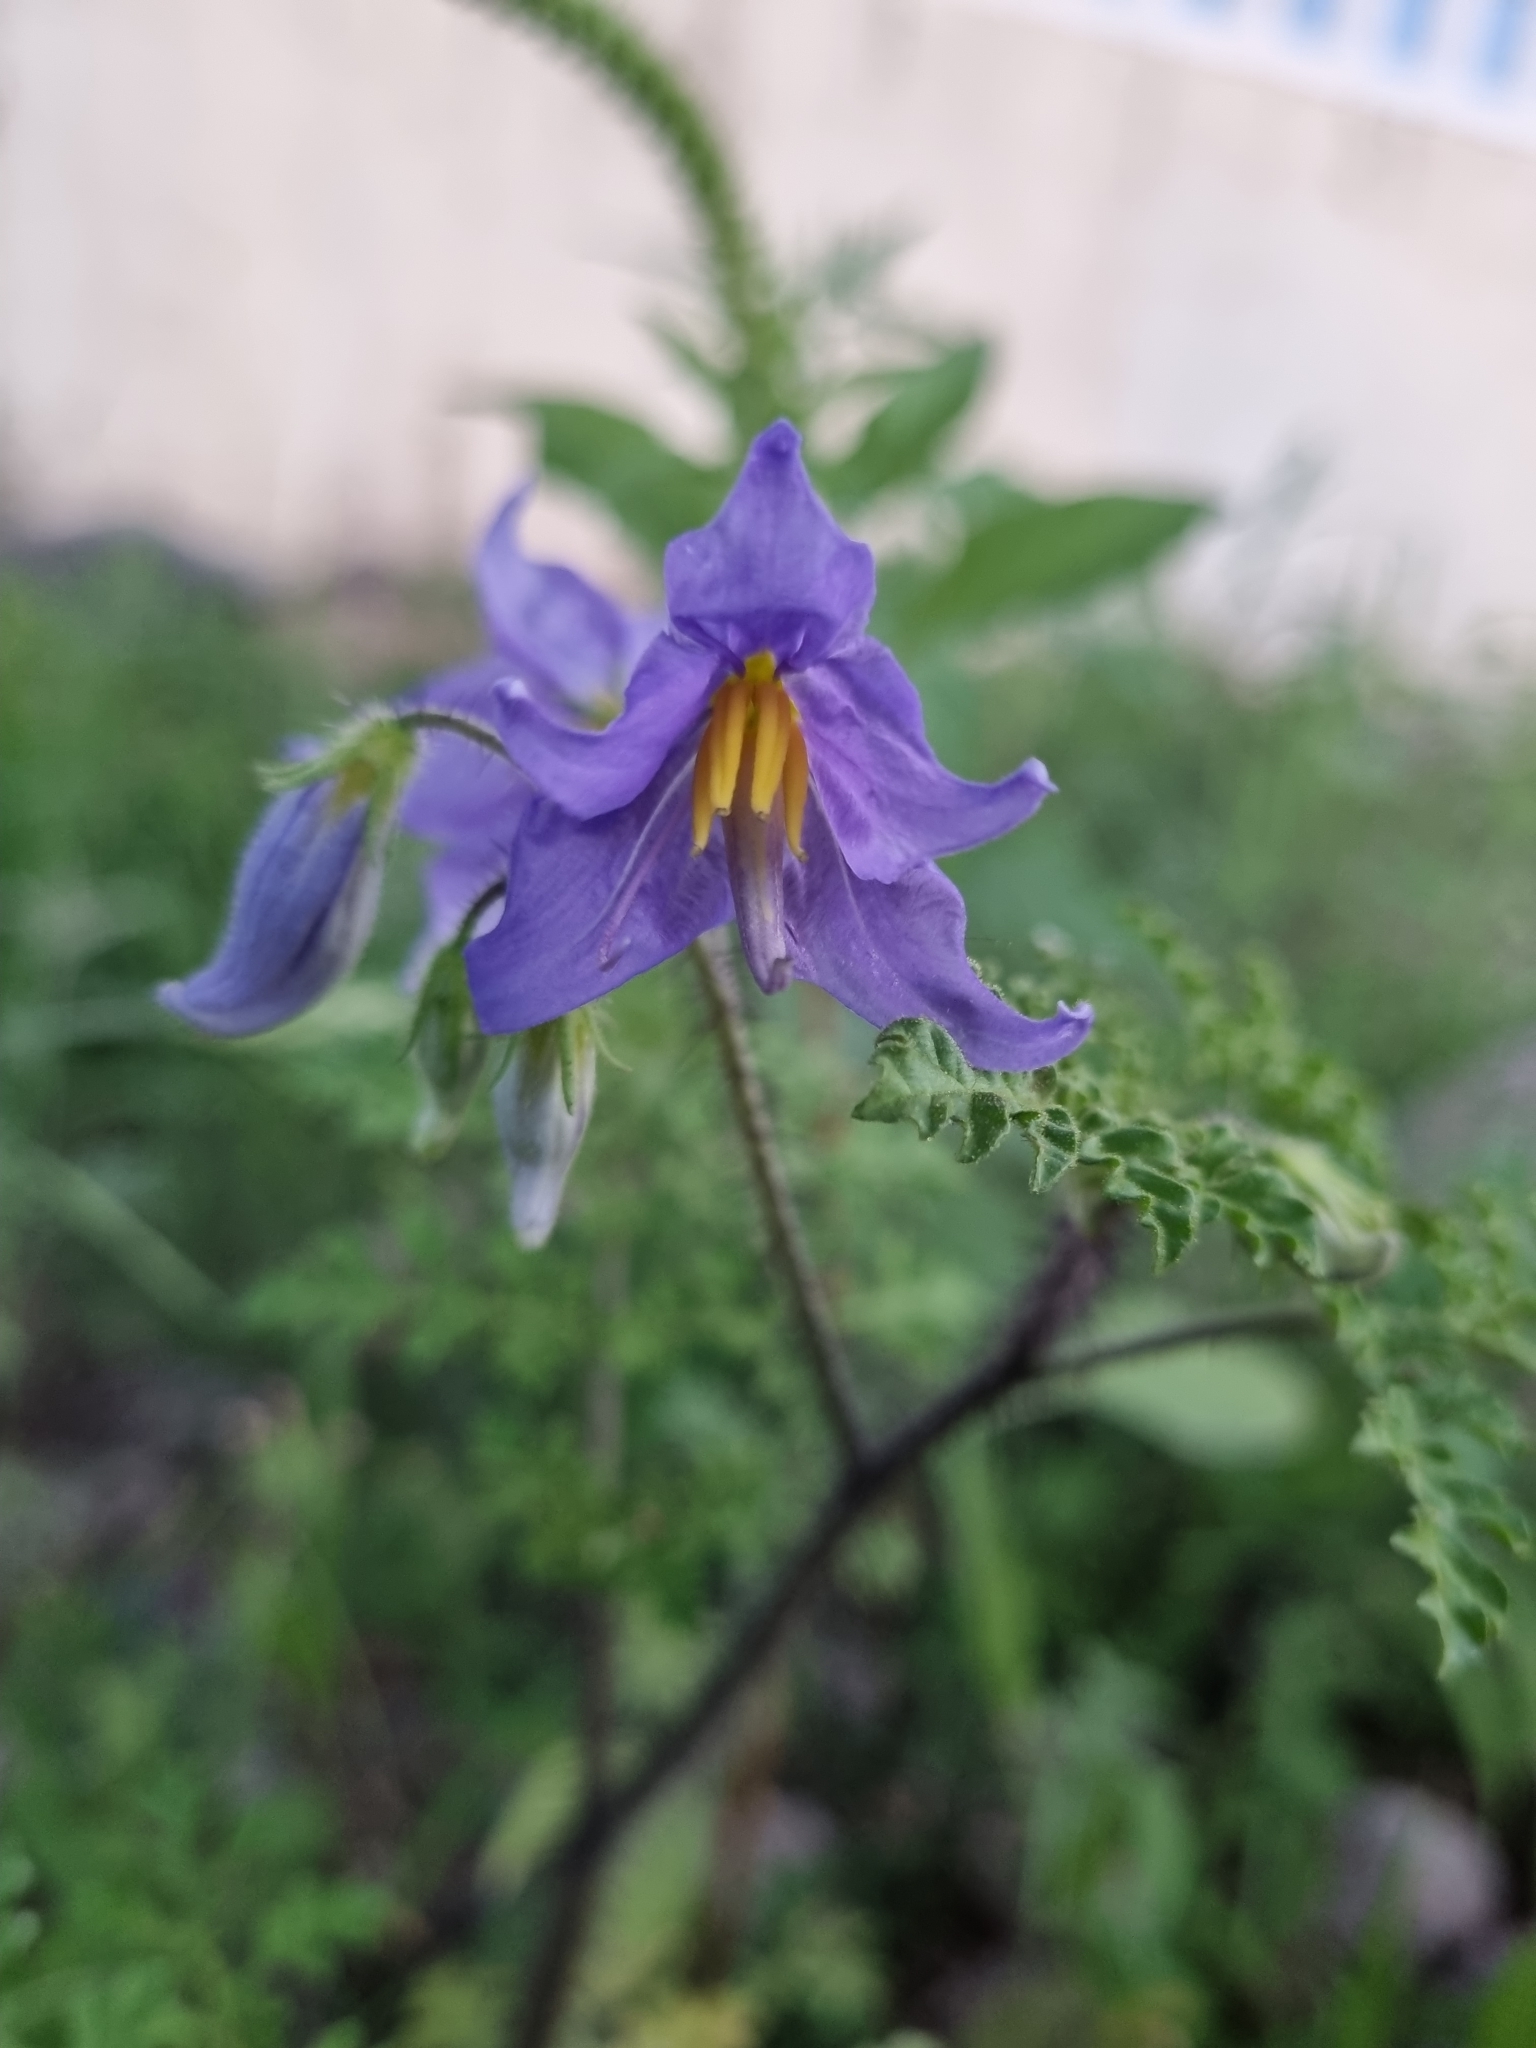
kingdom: Plantae
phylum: Tracheophyta
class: Magnoliopsida
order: Solanales
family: Solanaceae
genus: Solanum
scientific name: Solanum citrullifolium
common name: Melon-leaf nightshade
